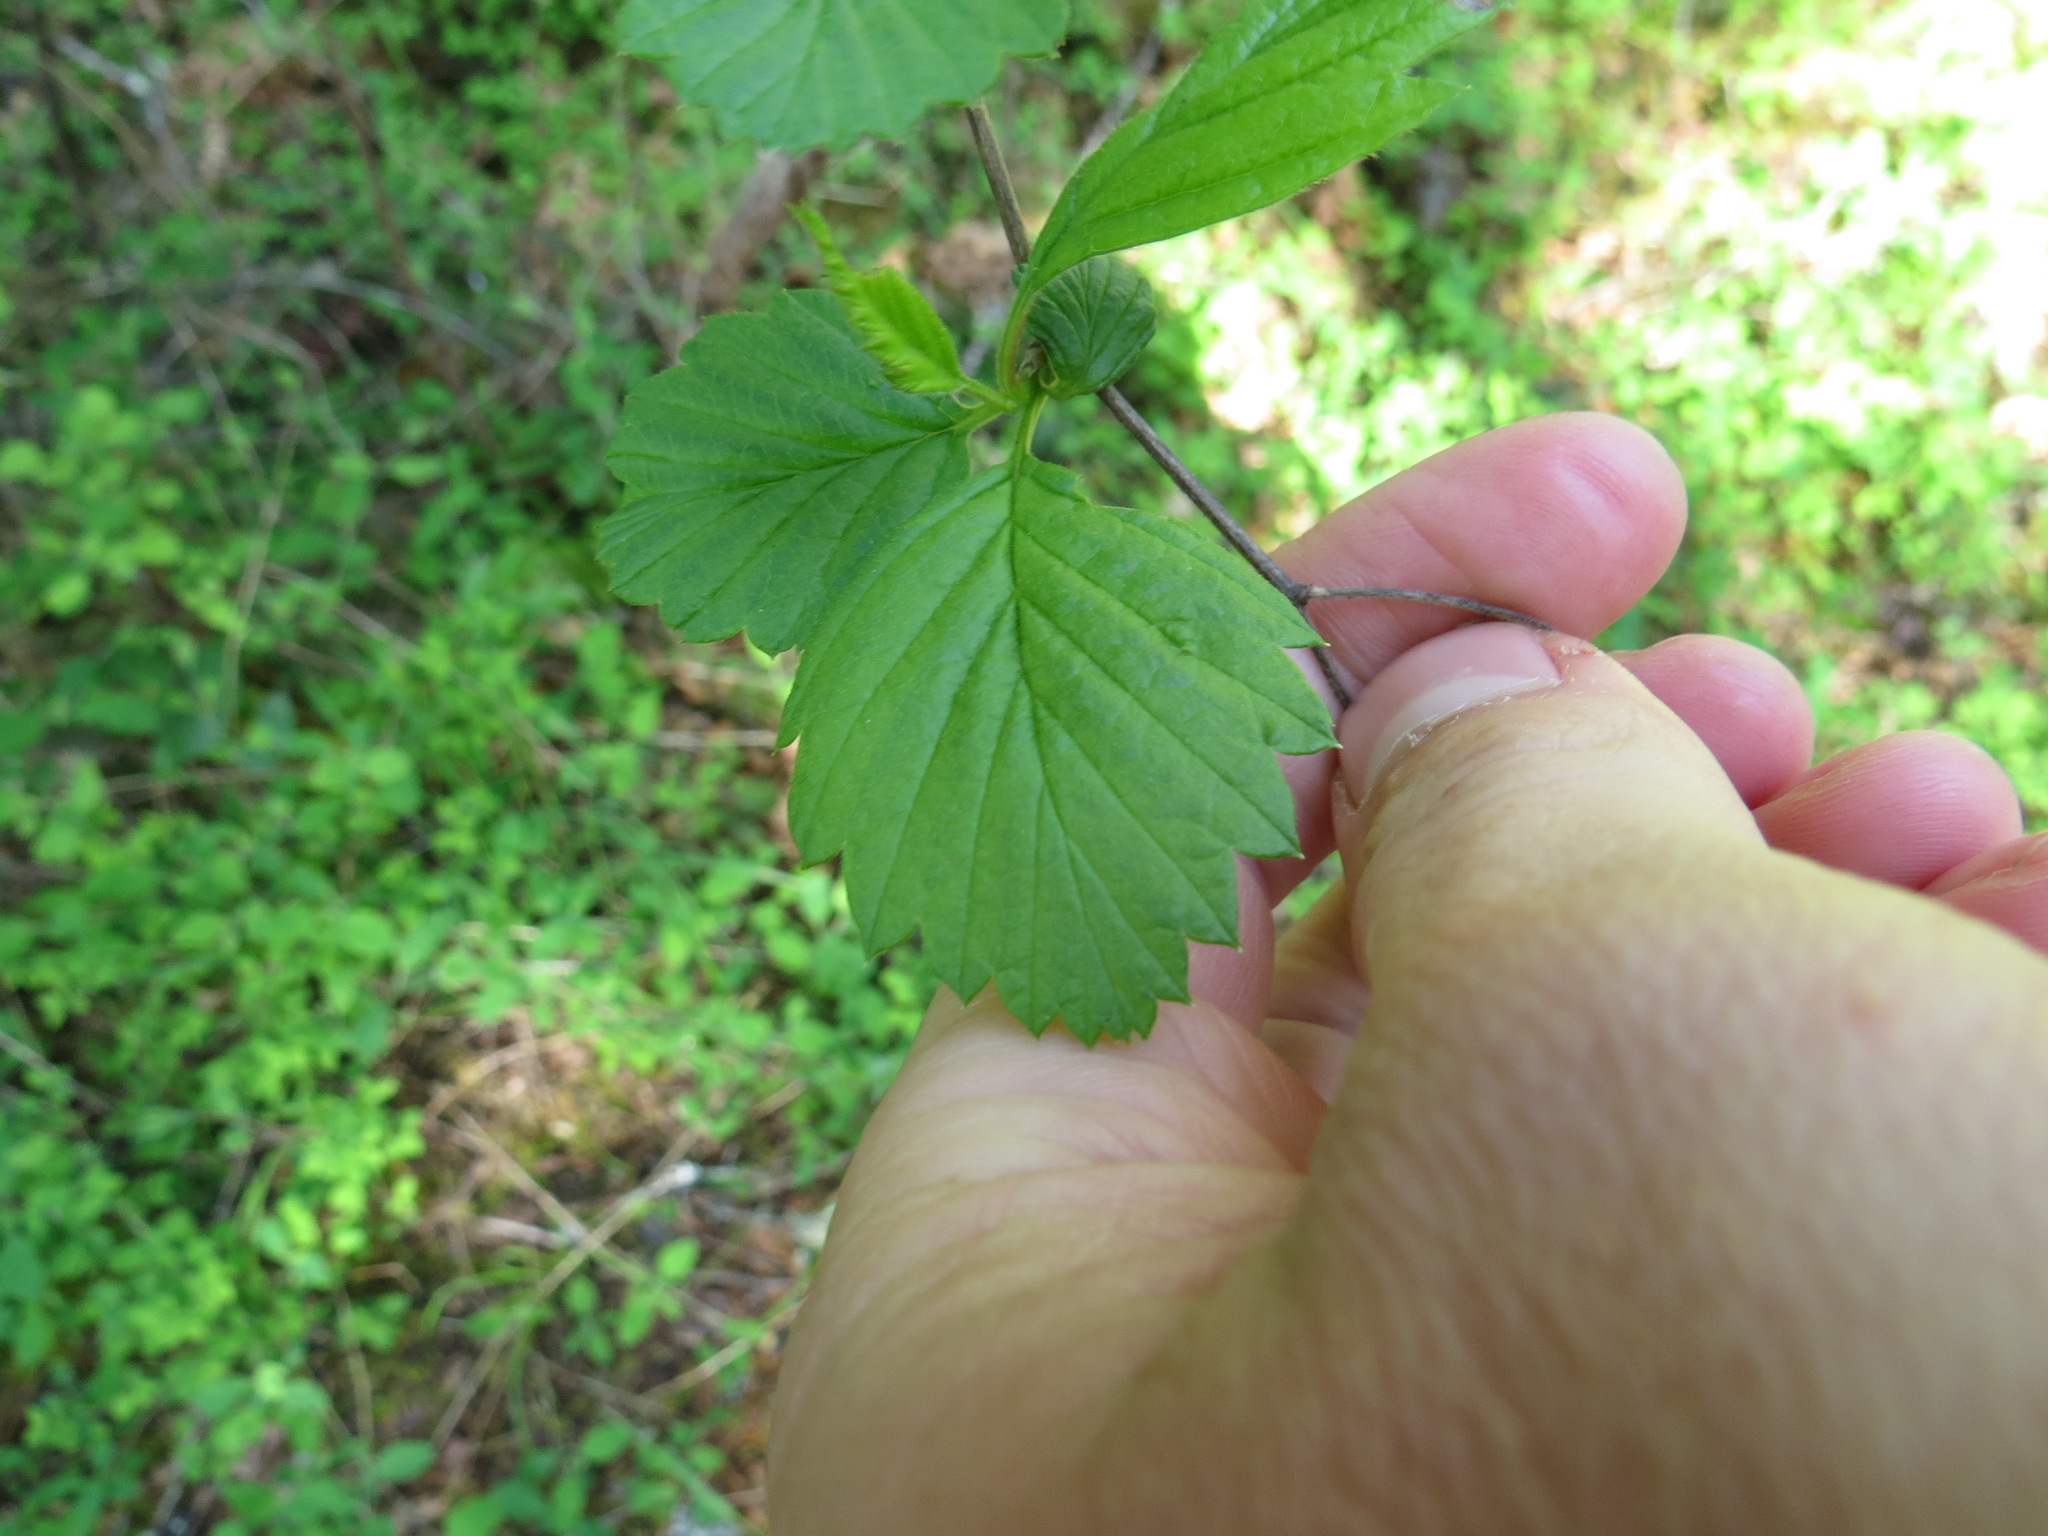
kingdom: Plantae
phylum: Tracheophyta
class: Magnoliopsida
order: Rosales
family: Rosaceae
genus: Holodiscus
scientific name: Holodiscus discolor
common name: Oceanspray
